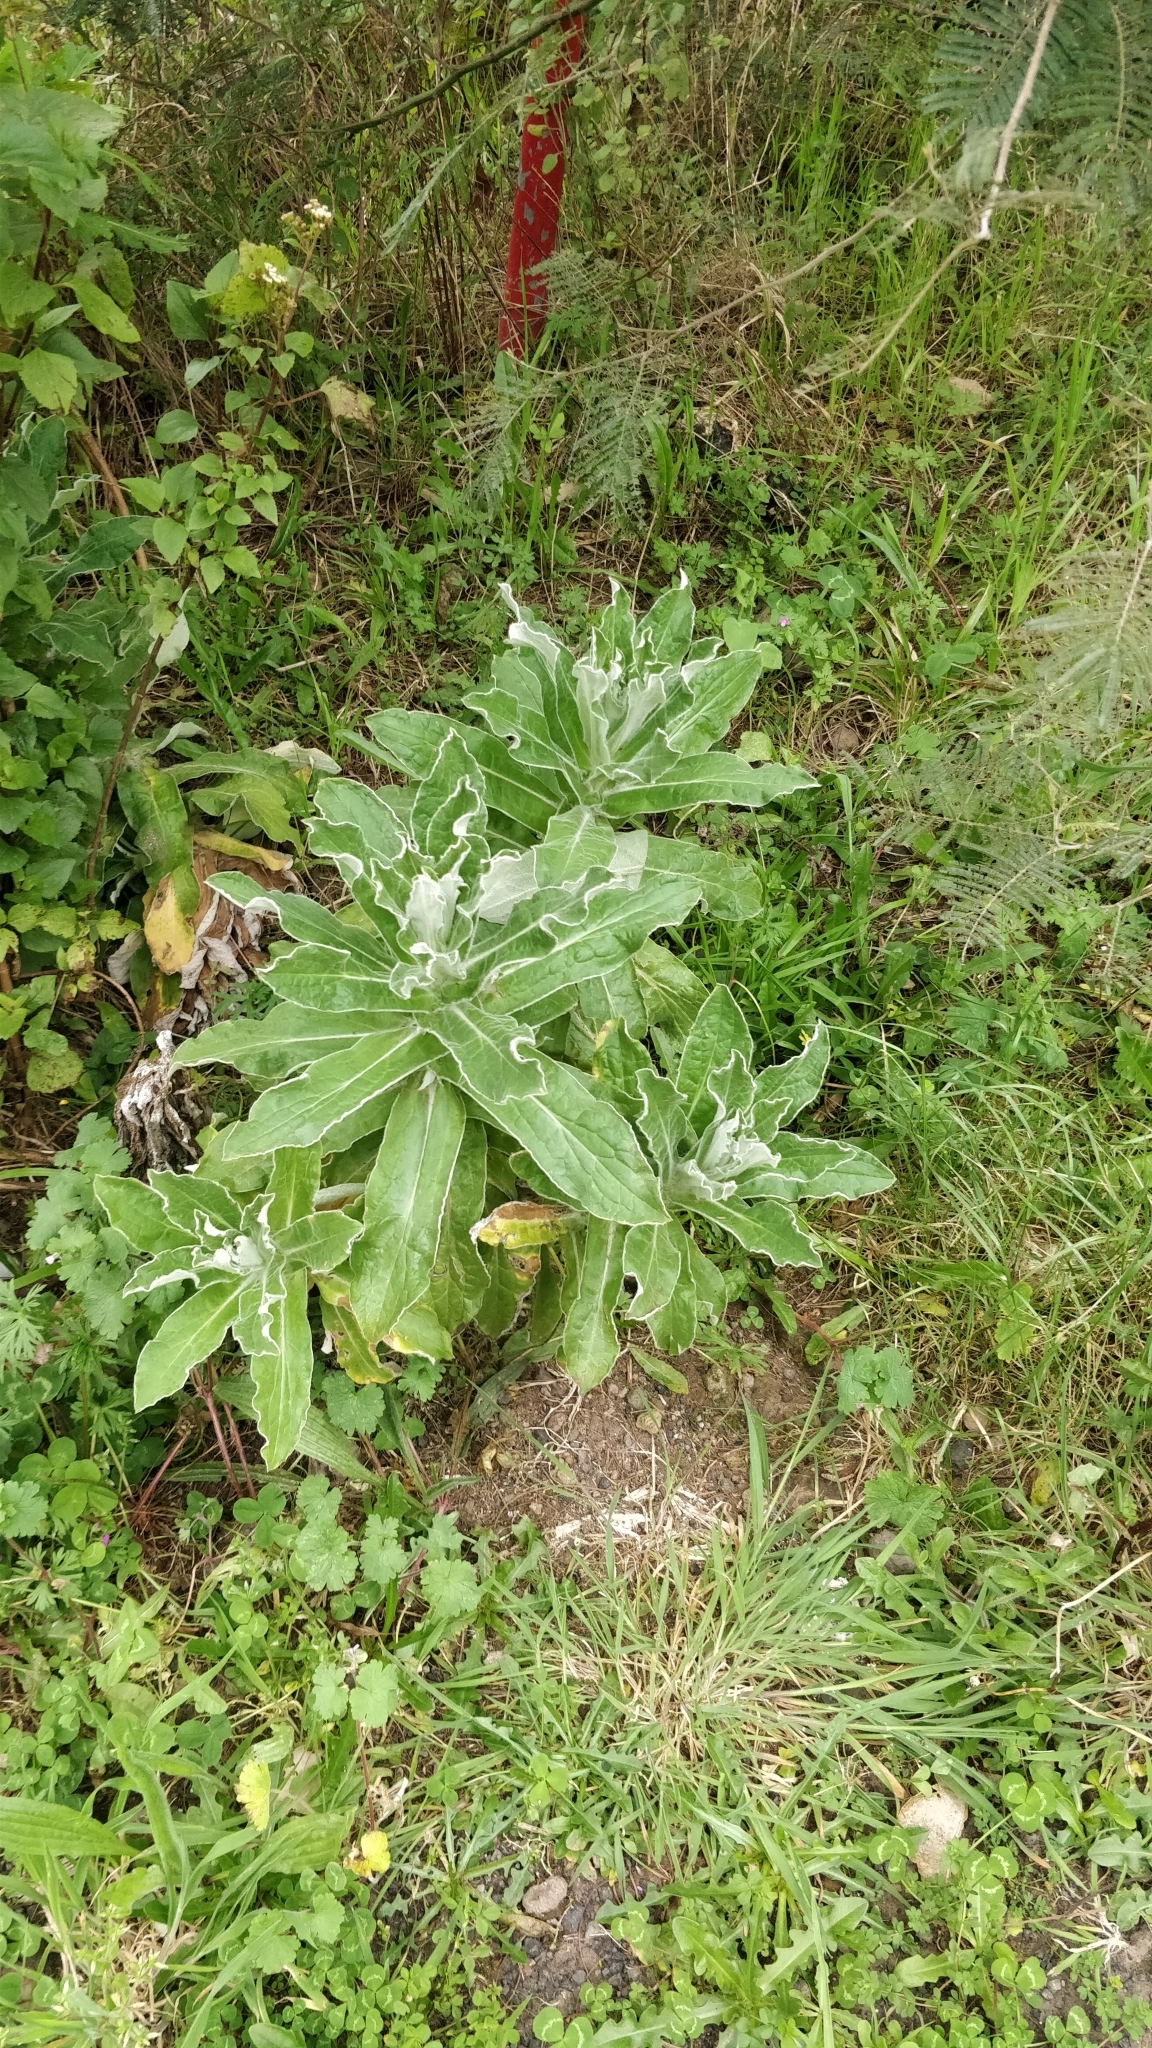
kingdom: Plantae
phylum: Tracheophyta
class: Magnoliopsida
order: Asterales
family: Asteraceae
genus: Helichrysum
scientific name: Helichrysum foetidum
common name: Stinking everlasting
